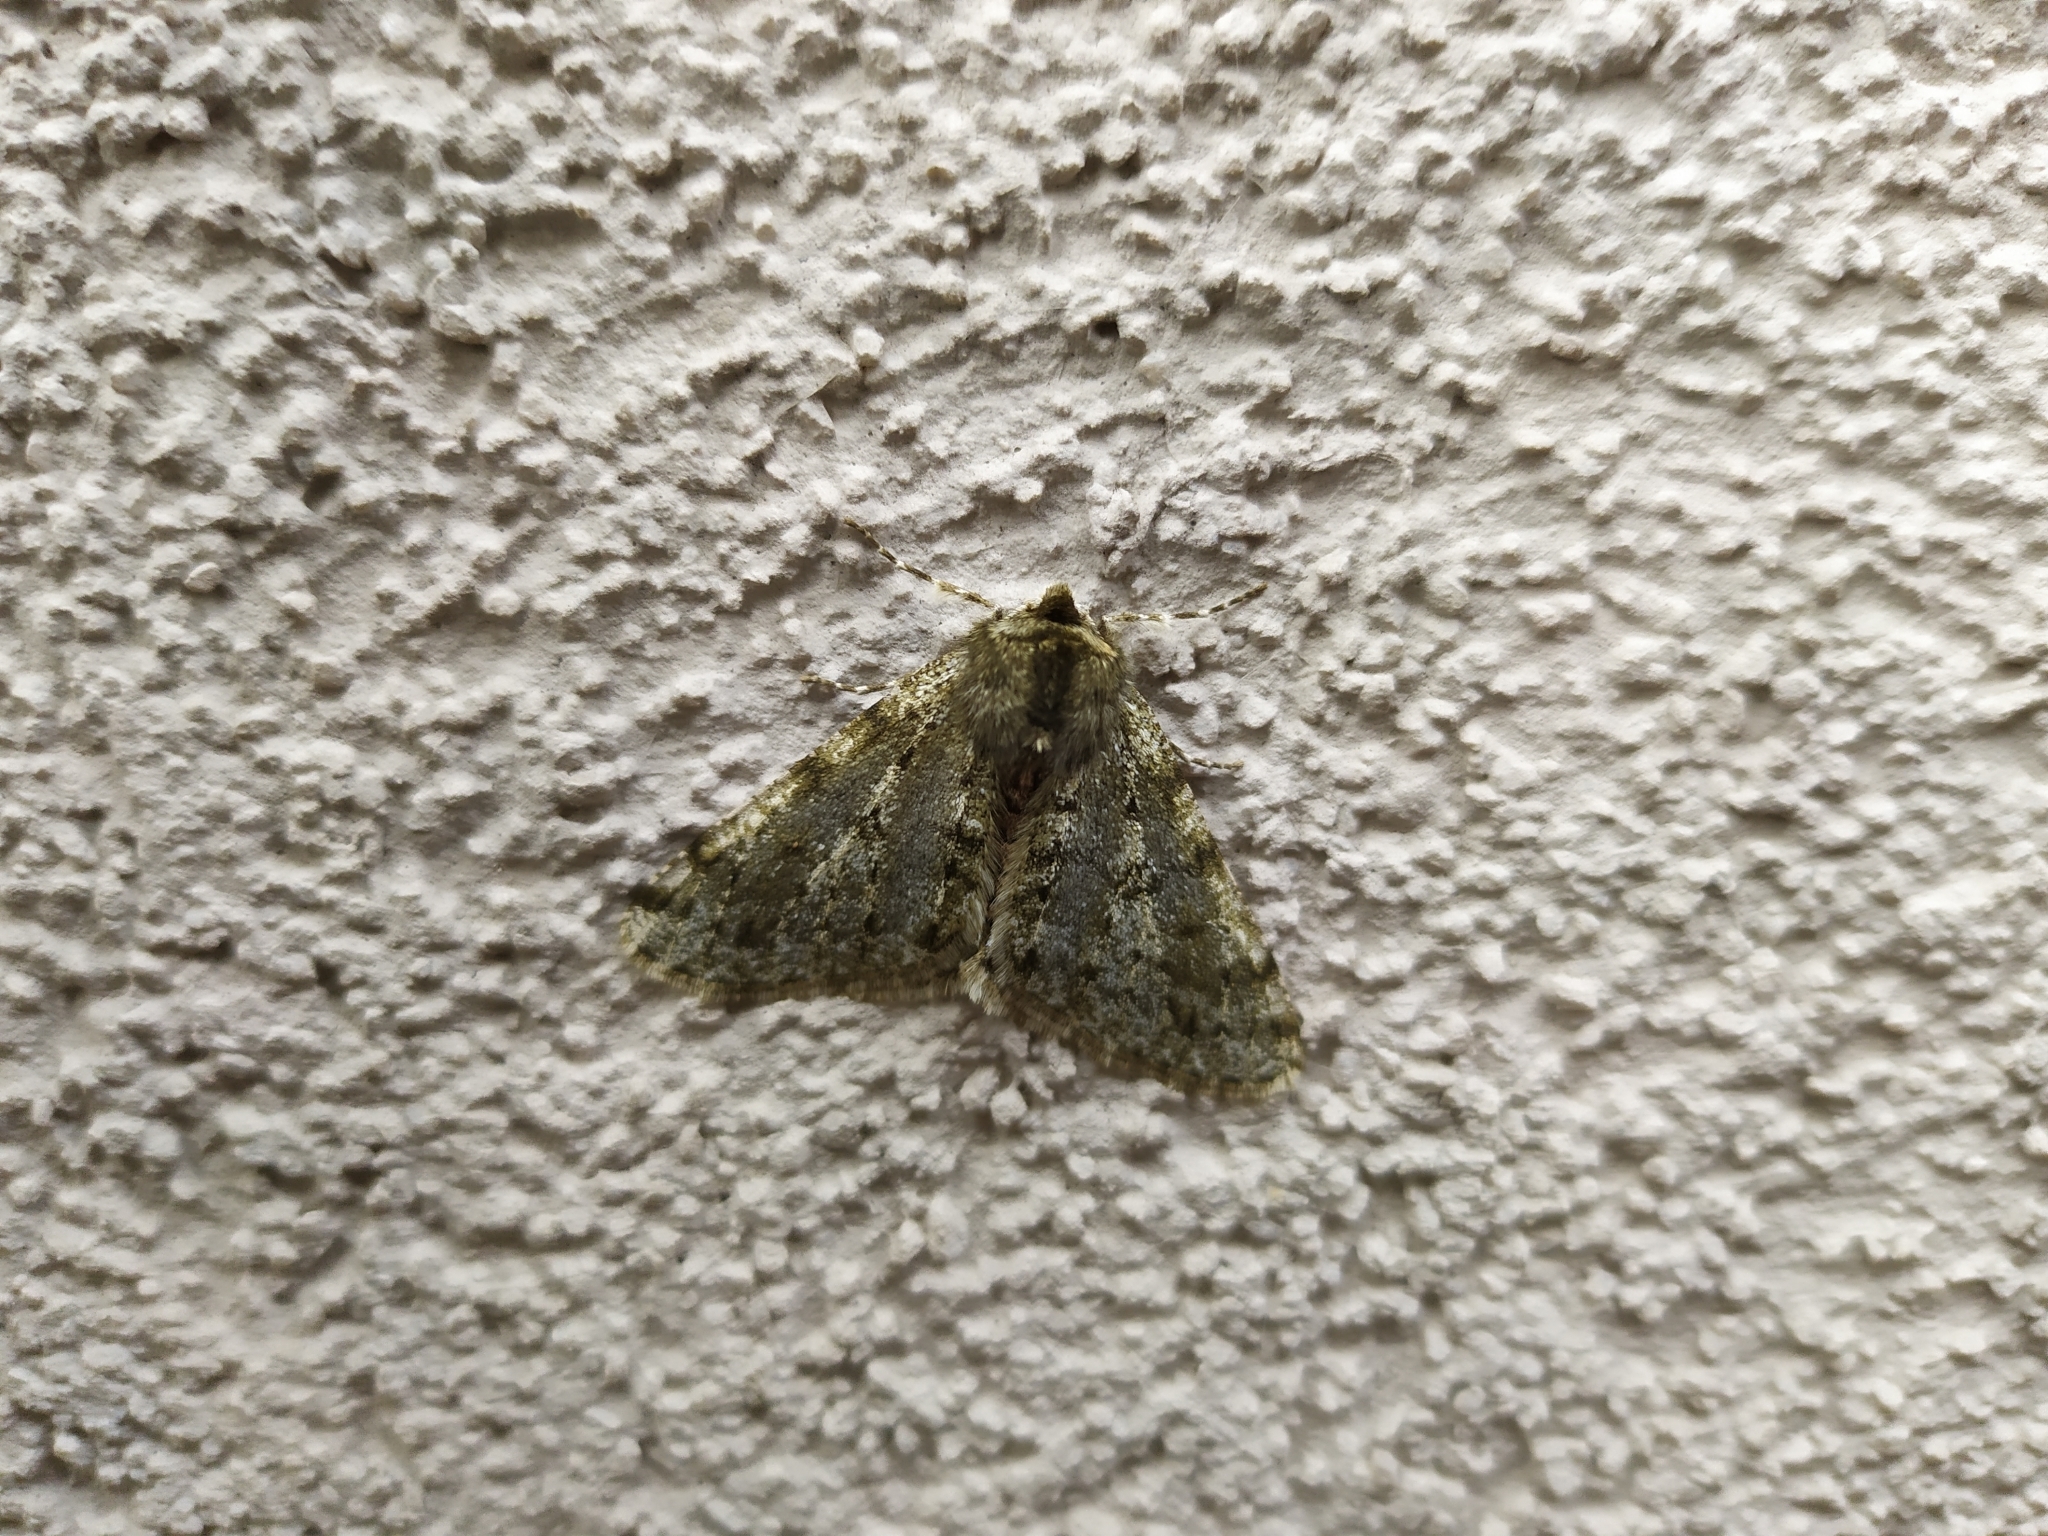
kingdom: Animalia
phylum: Arthropoda
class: Insecta
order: Lepidoptera
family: Geometridae
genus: Phigalia
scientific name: Phigalia pilosaria
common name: Pale brindled beauty
